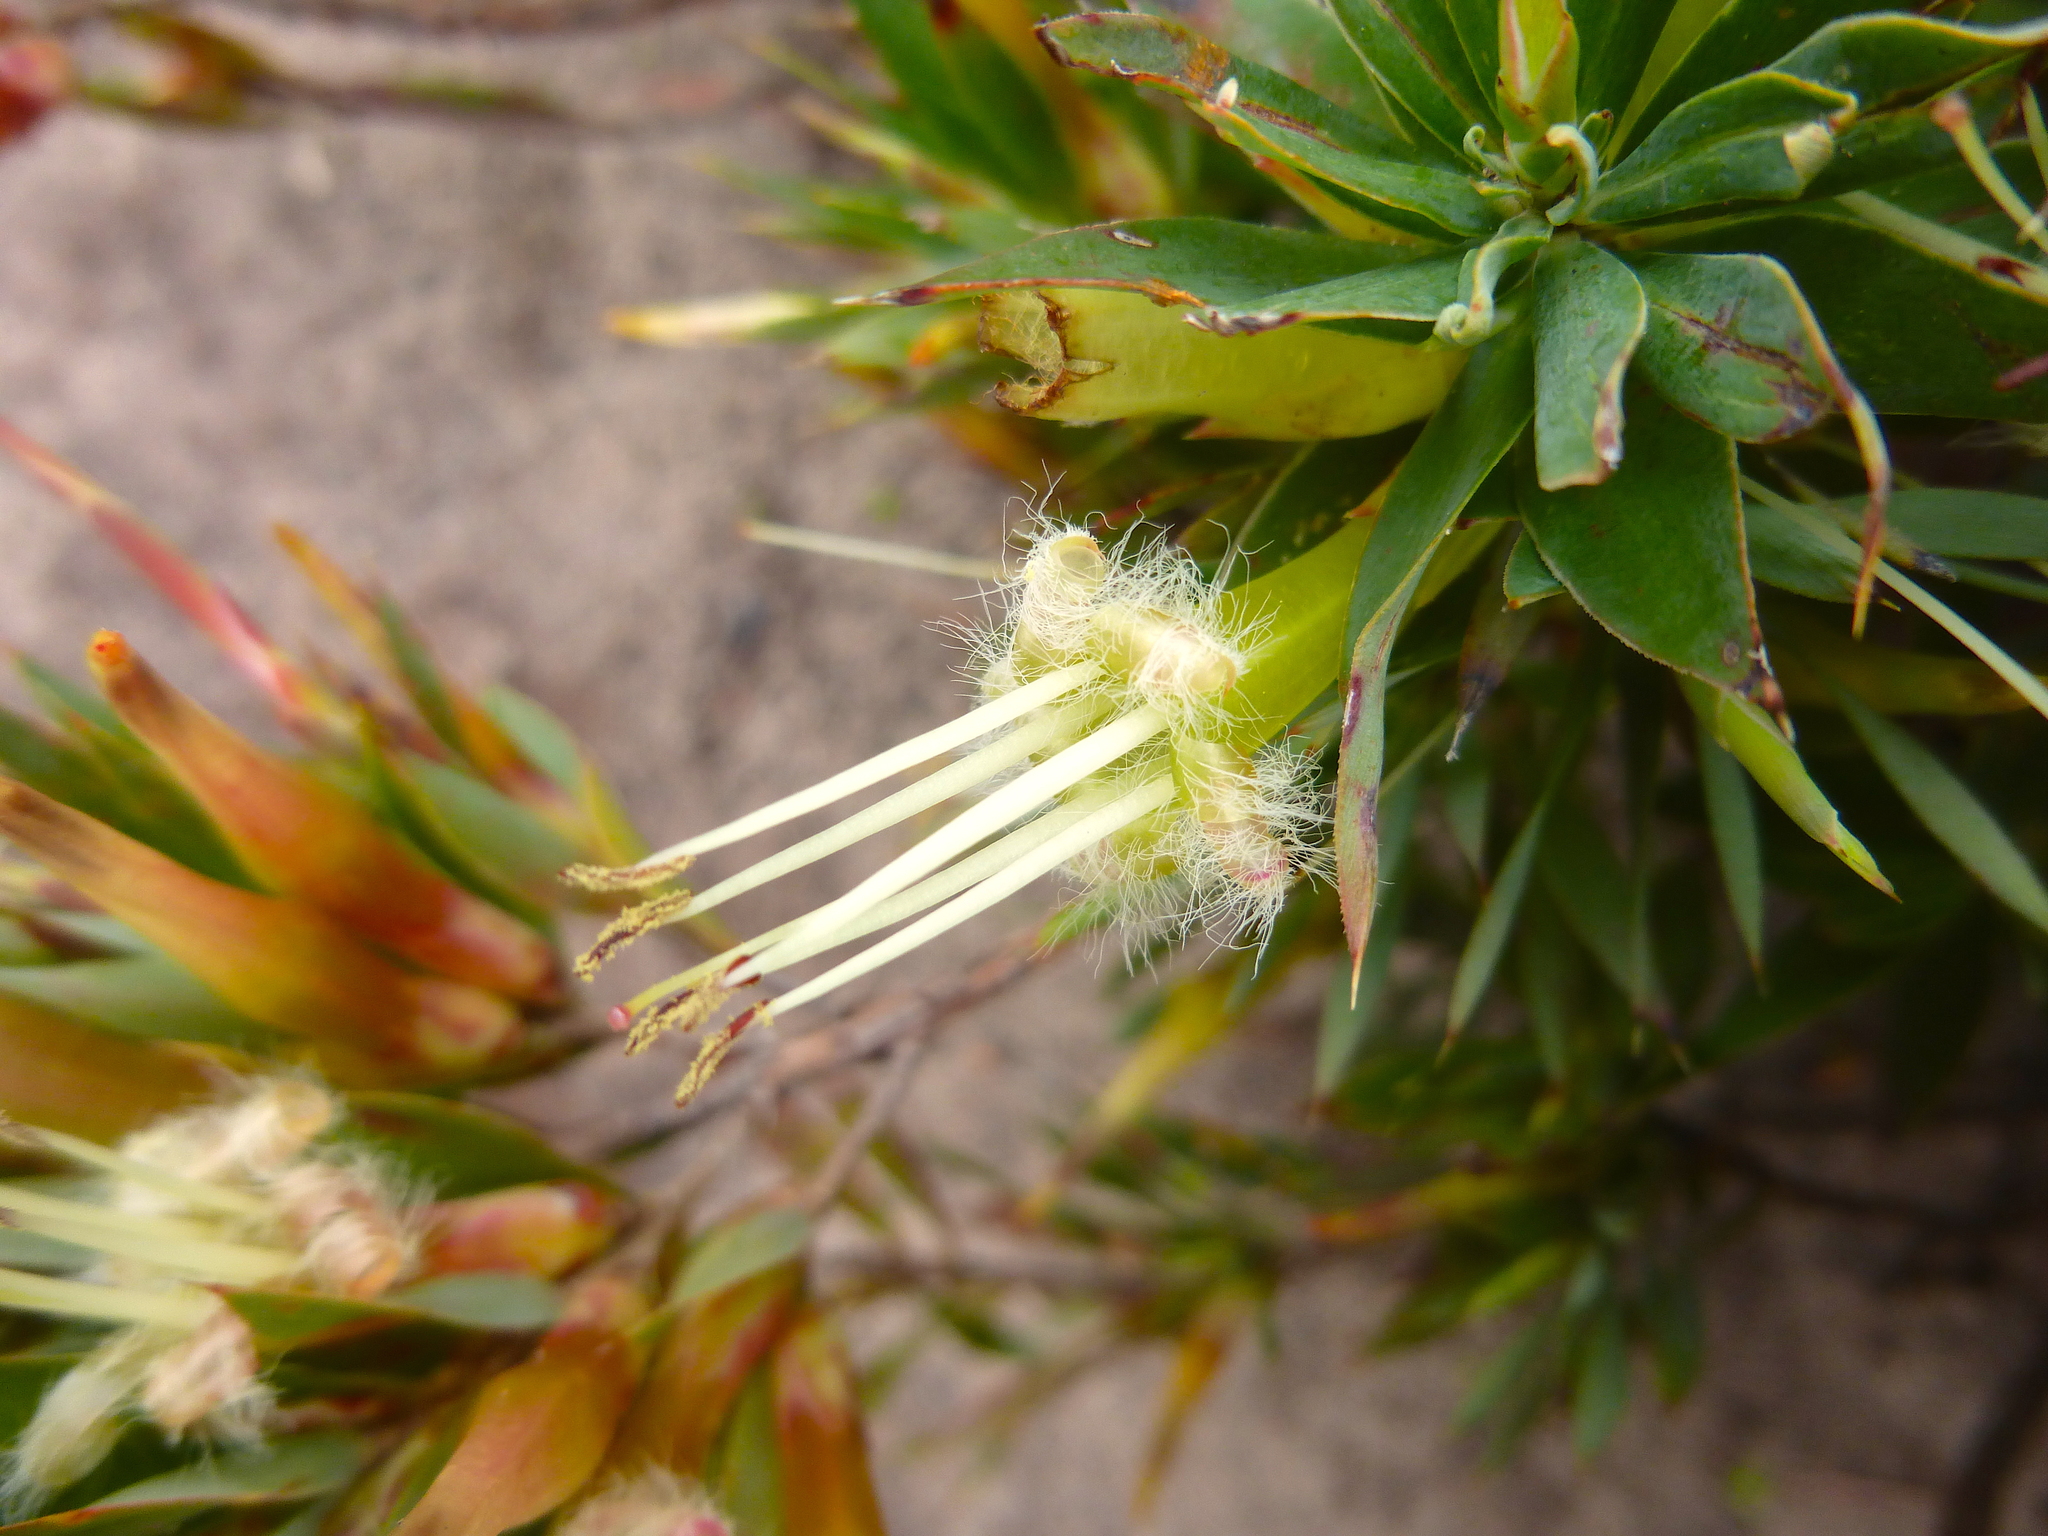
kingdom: Plantae
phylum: Tracheophyta
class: Magnoliopsida
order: Ericales
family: Ericaceae
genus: Styphelia
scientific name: Styphelia adscendens
